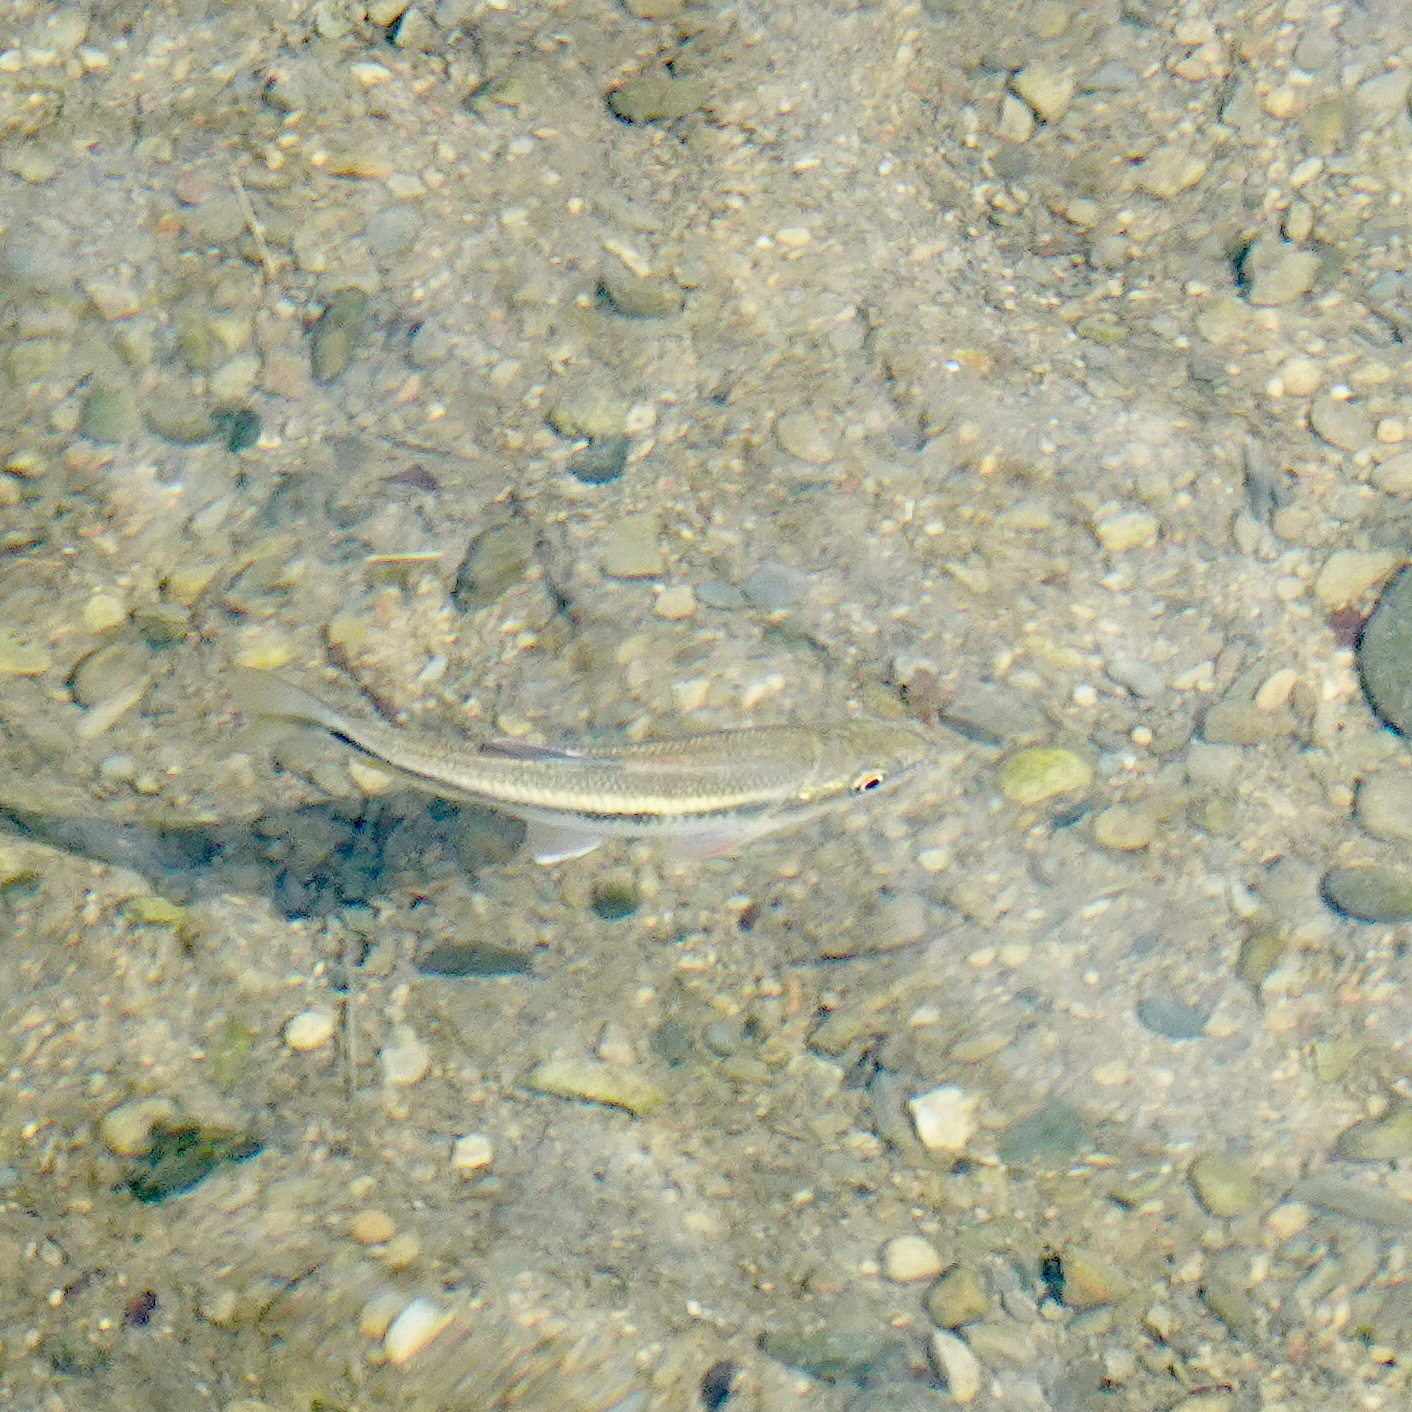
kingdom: Animalia
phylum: Chordata
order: Cypriniformes
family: Cyprinidae
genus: Candidia
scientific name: Candidia barbata
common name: Lake candidus dace
